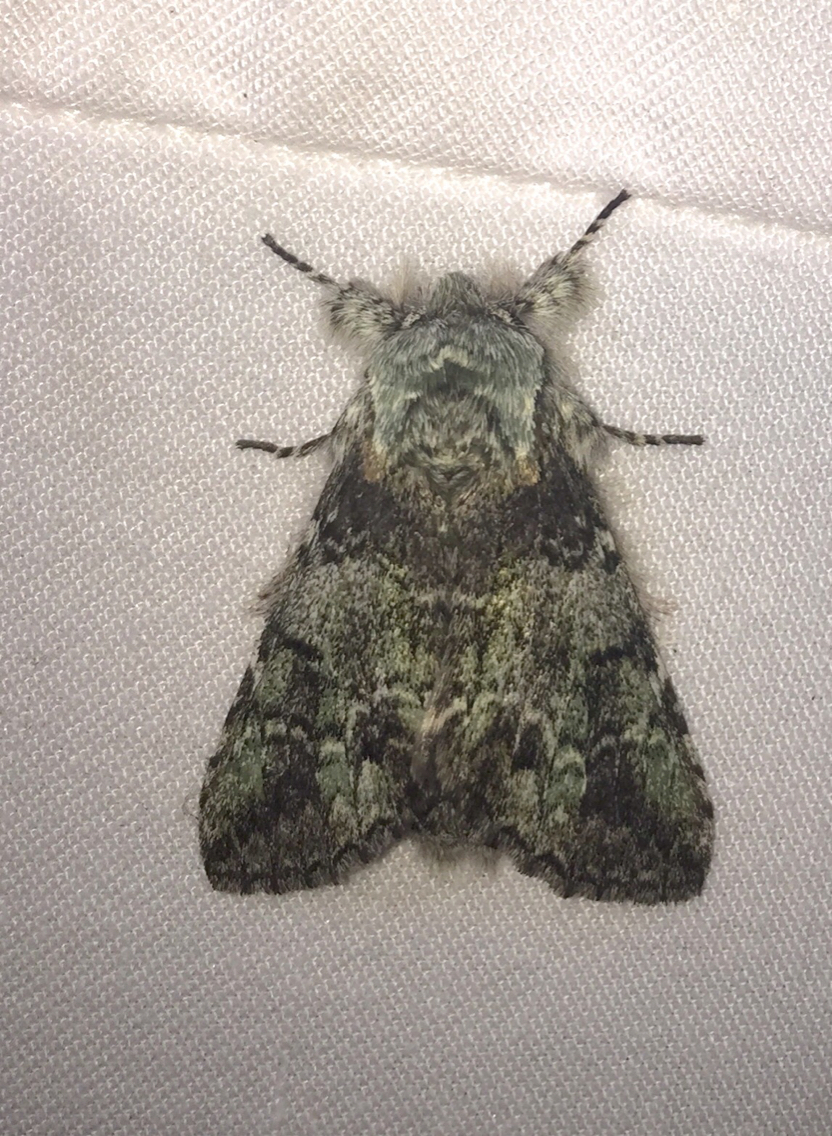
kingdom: Animalia
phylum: Arthropoda
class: Insecta
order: Lepidoptera
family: Notodontidae
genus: Macrurocampa
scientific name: Macrurocampa marthesia
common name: Mottled prominent
